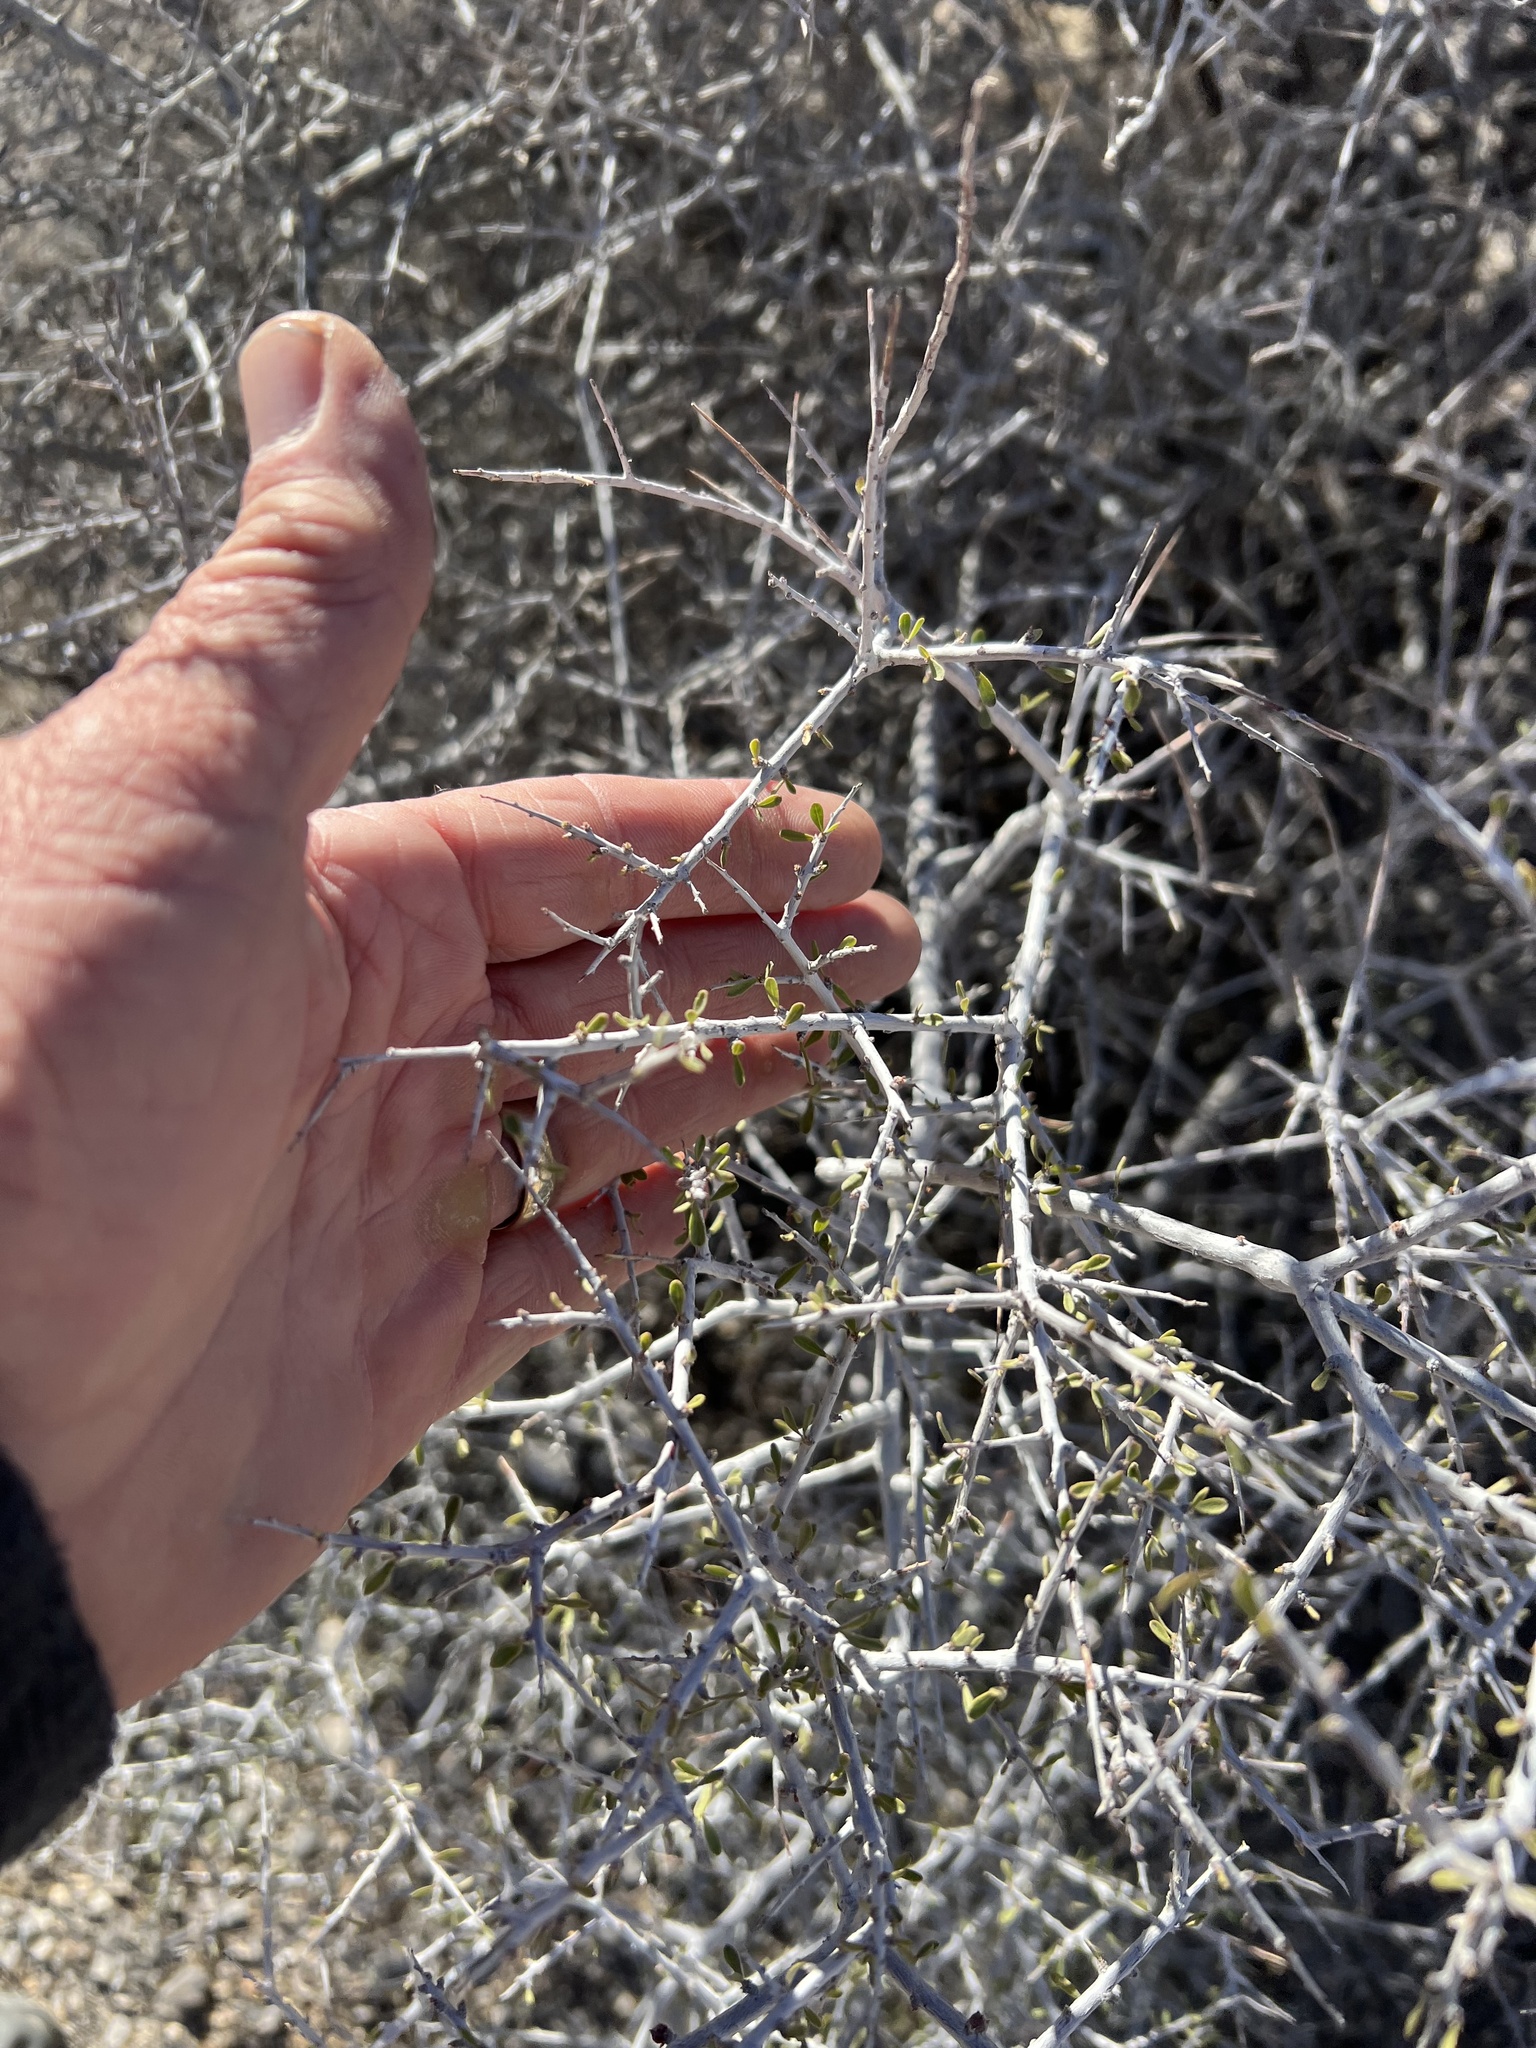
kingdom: Plantae
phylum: Tracheophyta
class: Magnoliopsida
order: Solanales
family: Solanaceae
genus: Lycium
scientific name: Lycium andersonii
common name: Water-jacket
